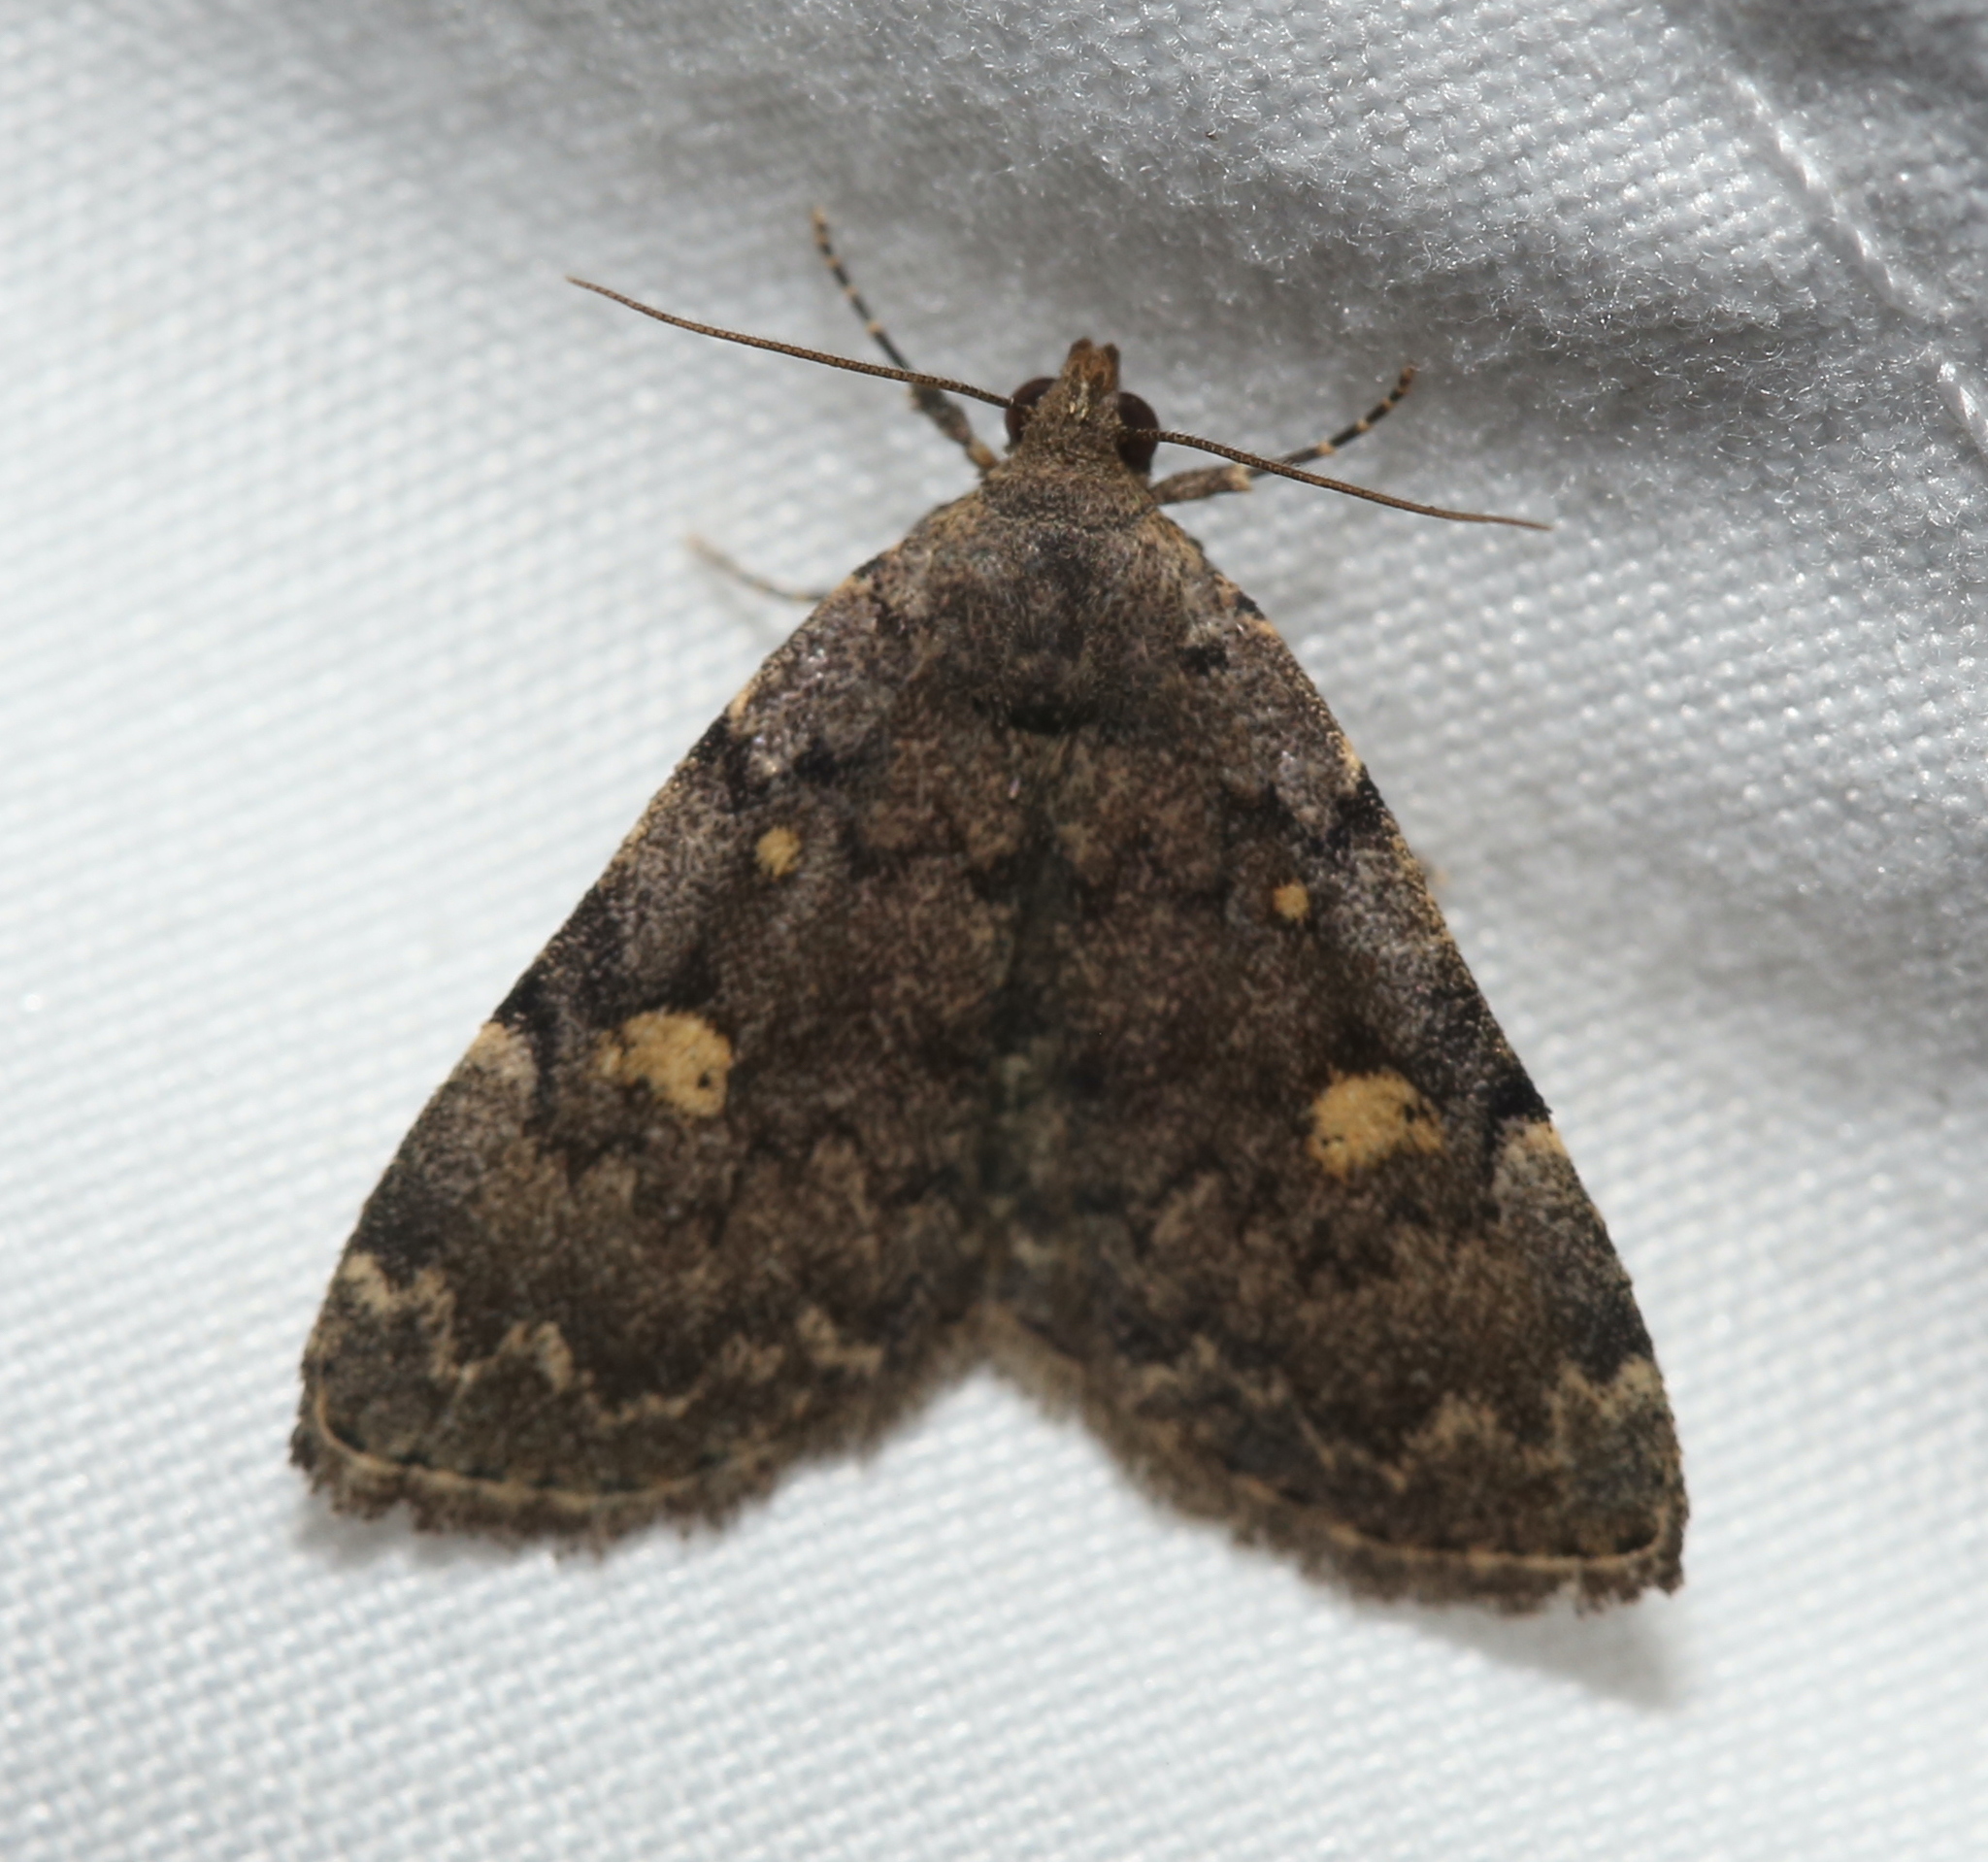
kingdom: Animalia
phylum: Arthropoda
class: Insecta
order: Lepidoptera
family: Erebidae
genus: Idia
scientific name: Idia aemula
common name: Common idia moth
